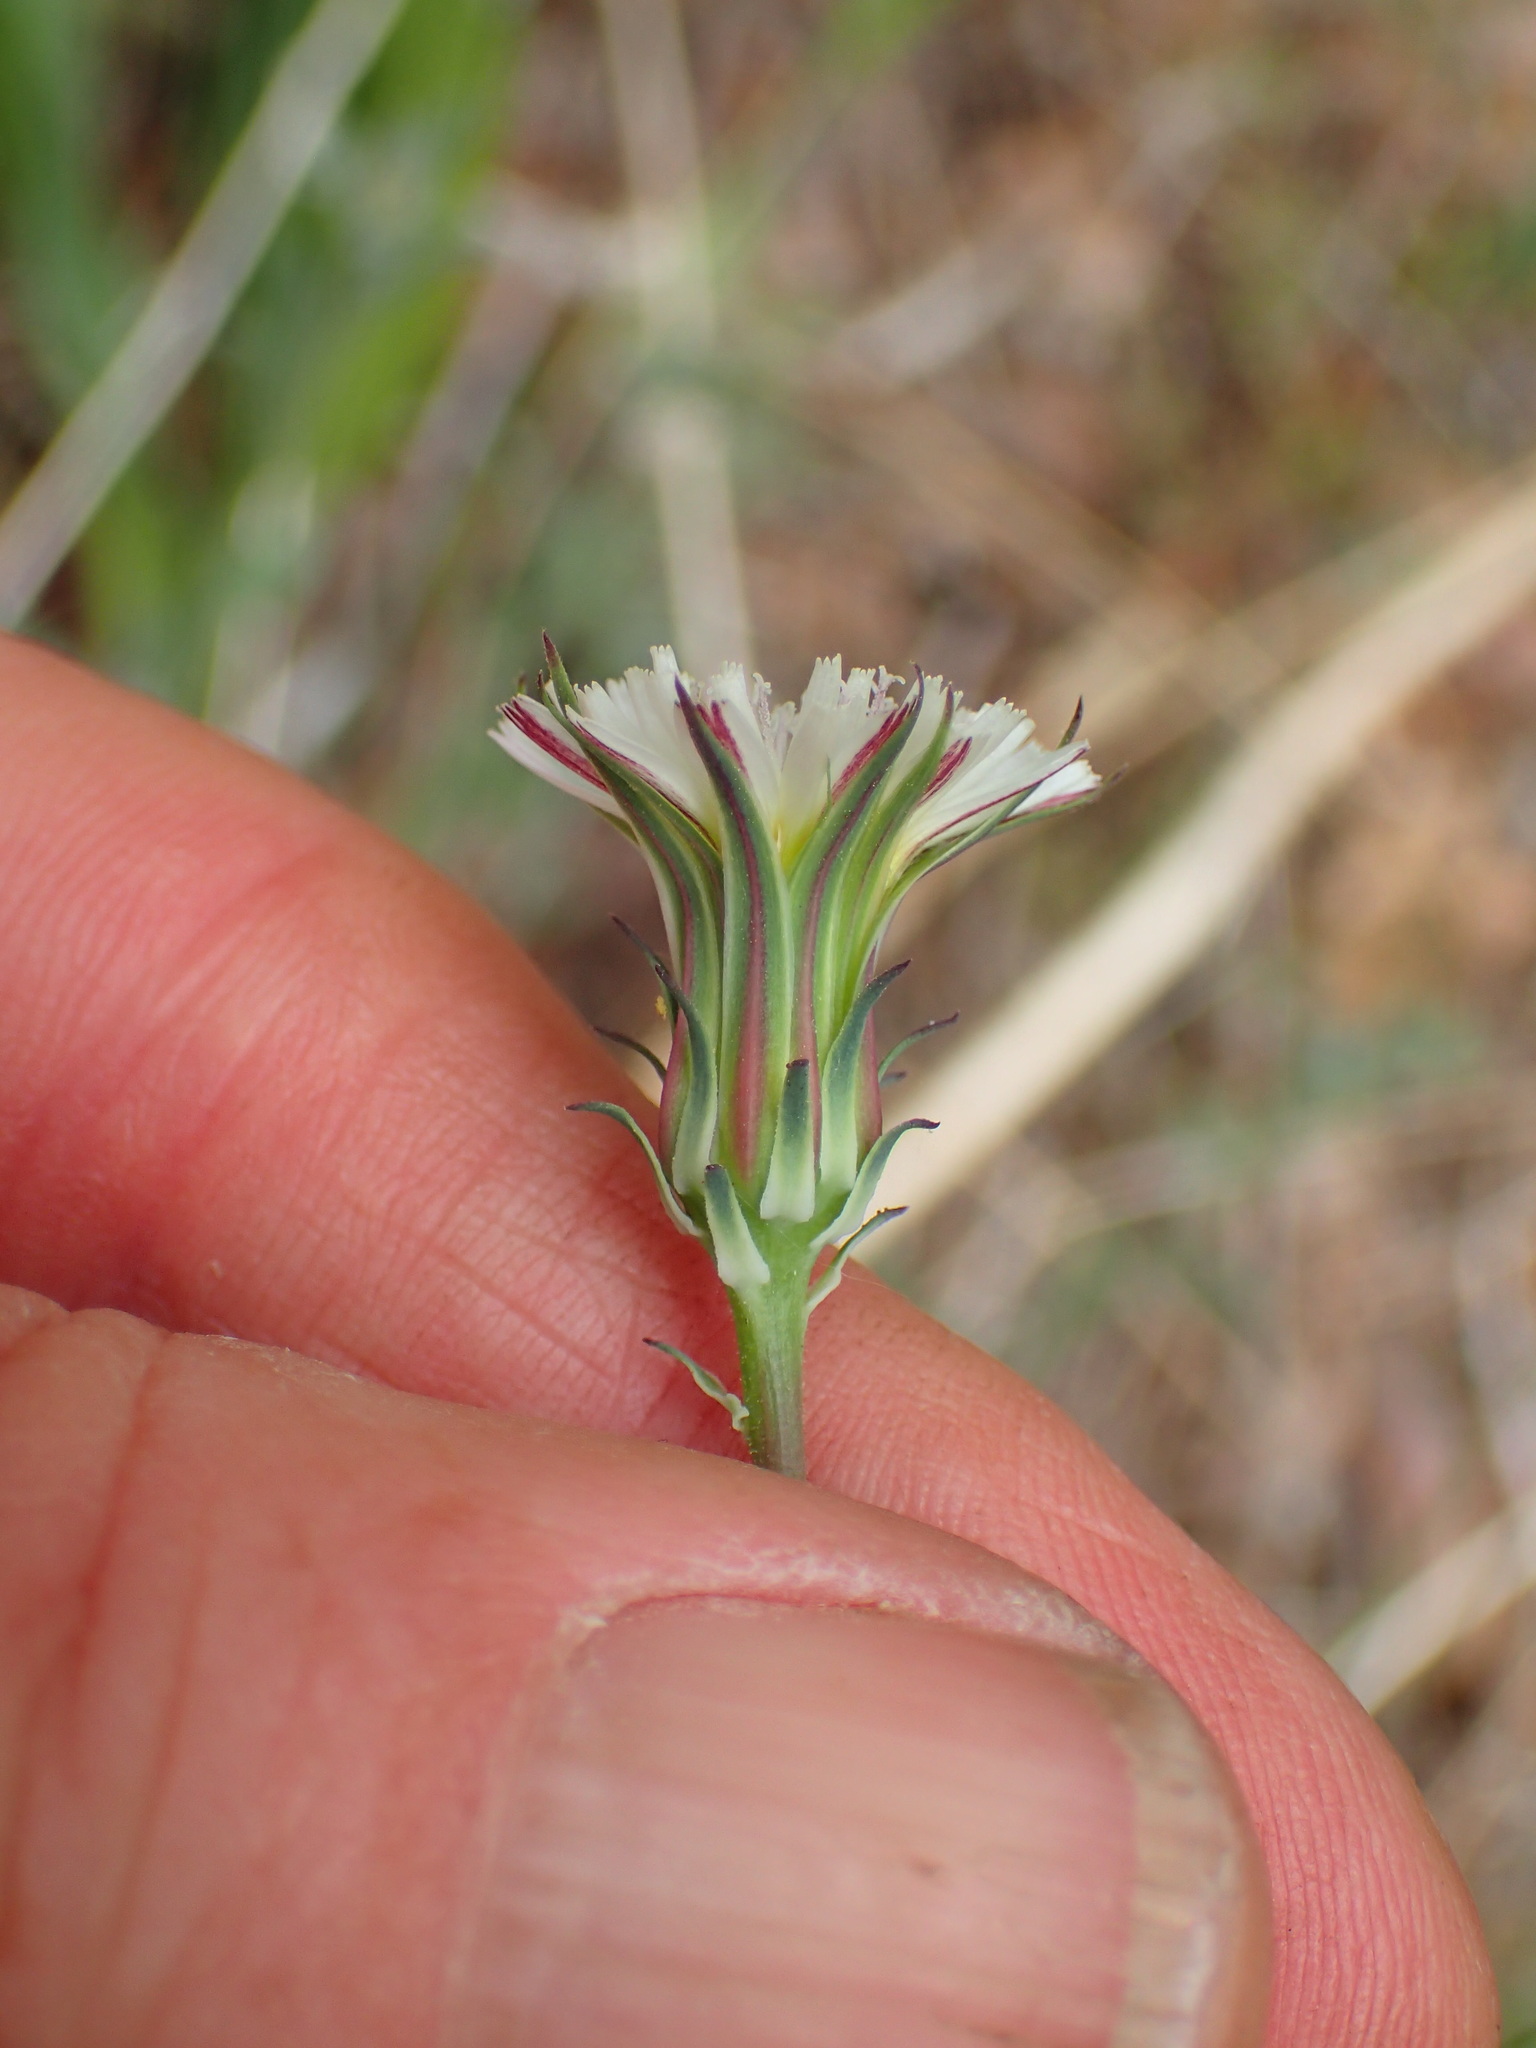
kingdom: Plantae
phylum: Tracheophyta
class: Magnoliopsida
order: Asterales
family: Asteraceae
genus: Rafinesquia
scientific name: Rafinesquia californica
